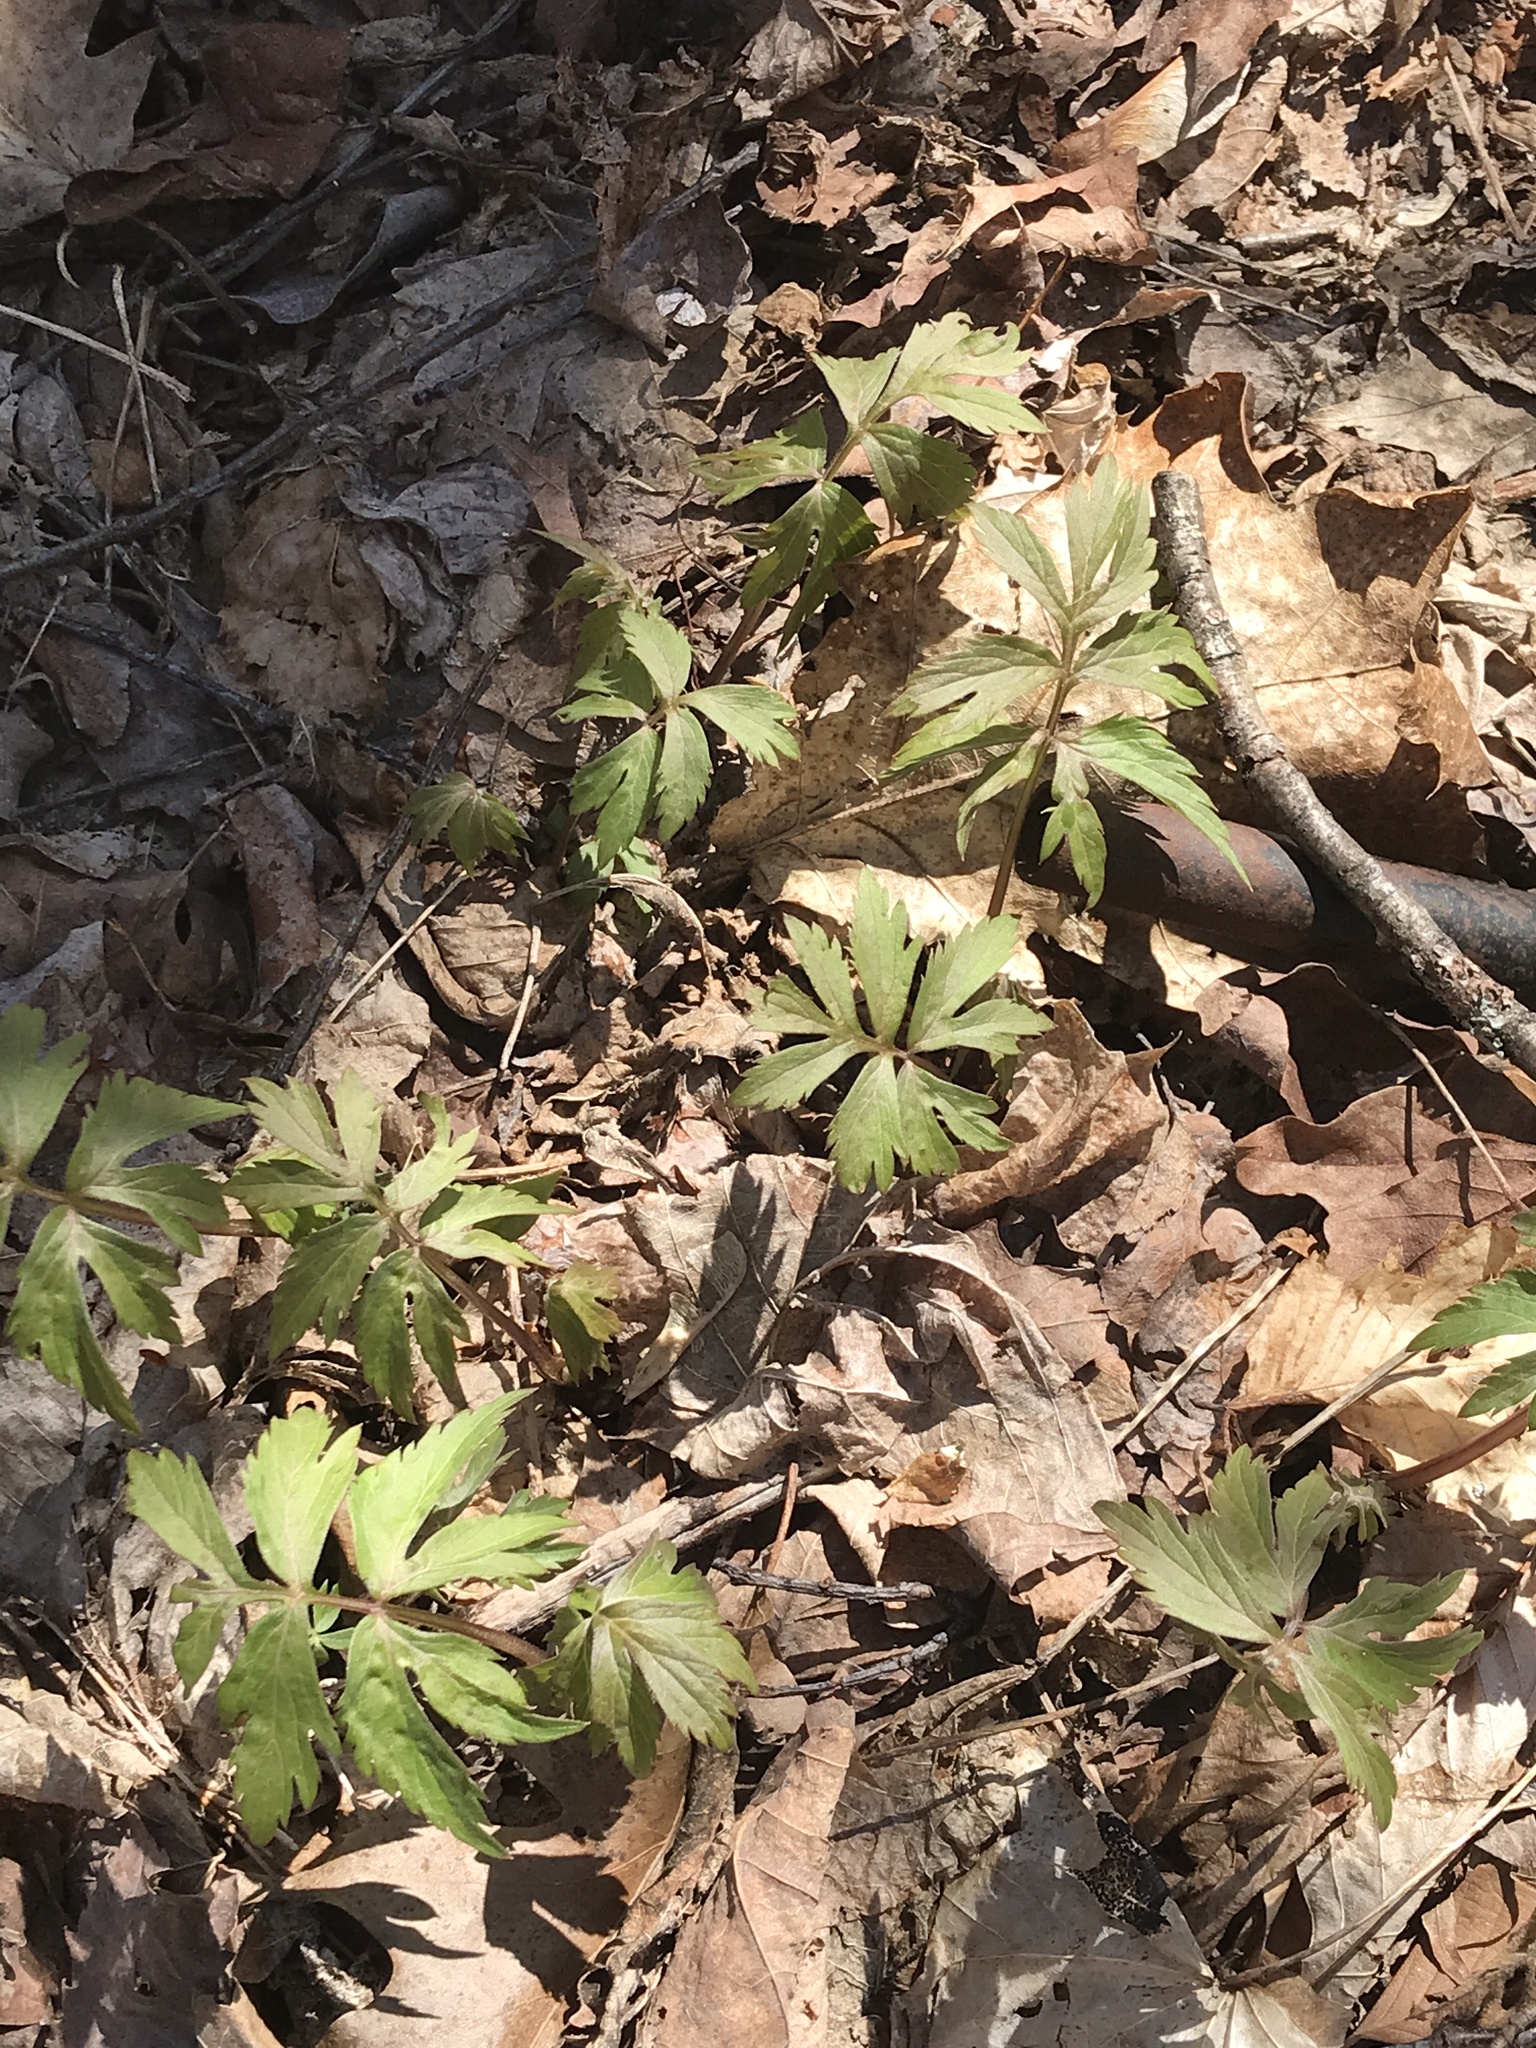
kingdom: Plantae
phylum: Tracheophyta
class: Magnoliopsida
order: Boraginales
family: Hydrophyllaceae
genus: Hydrophyllum
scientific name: Hydrophyllum virginianum
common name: Virginia waterleaf
